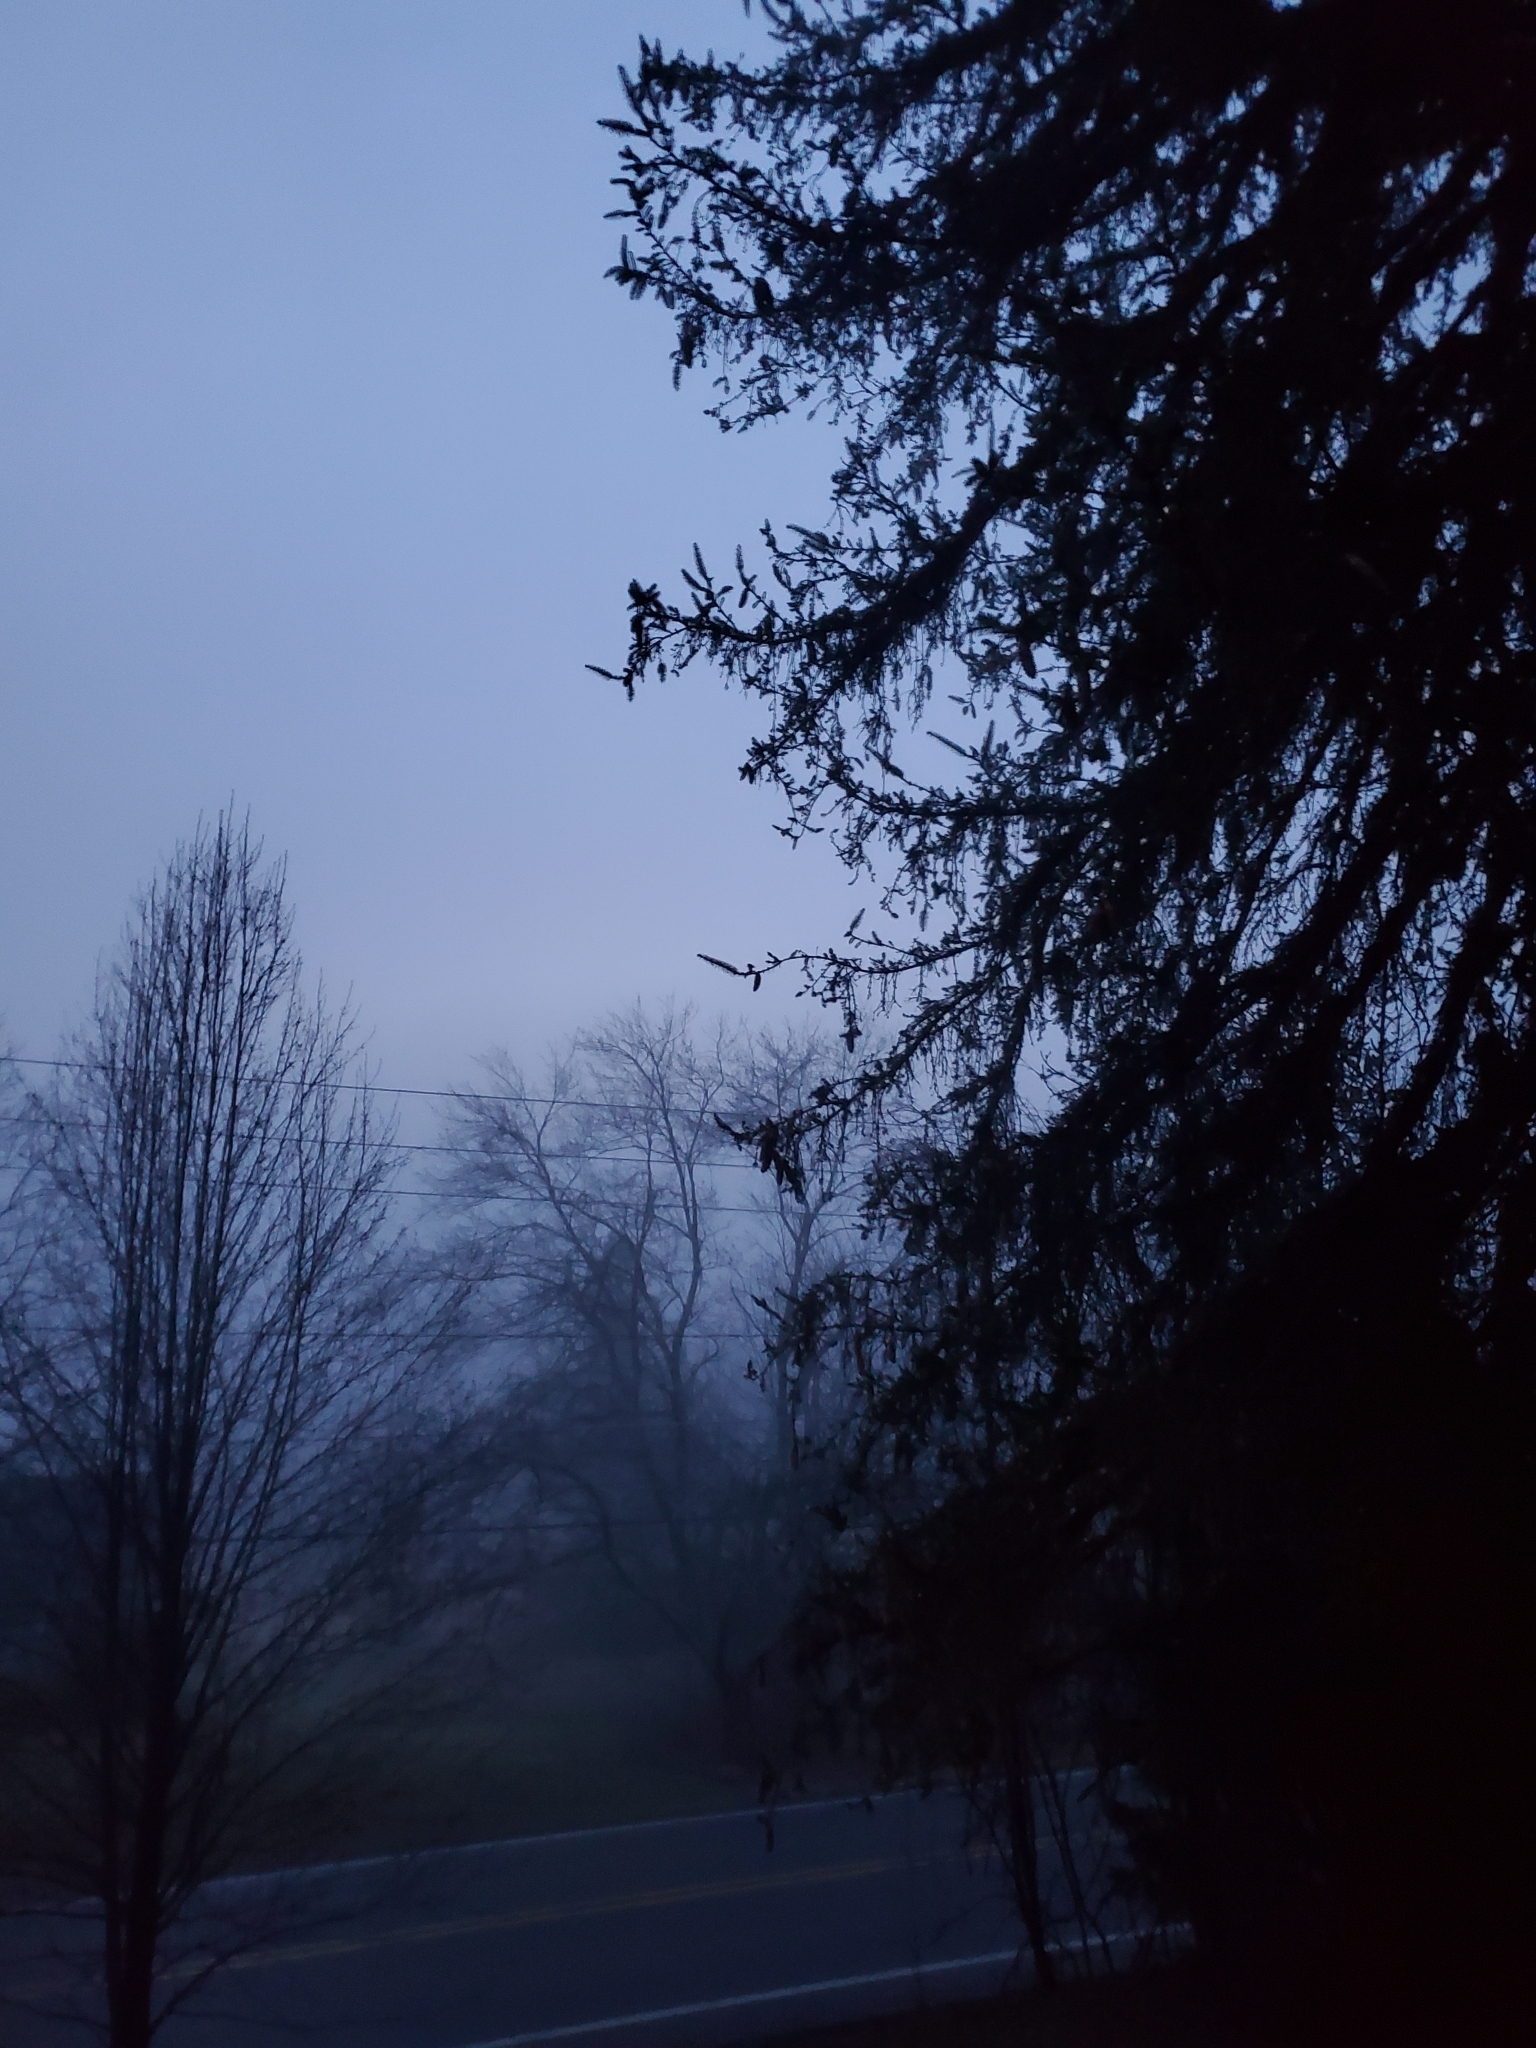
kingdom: Animalia
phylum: Chordata
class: Aves
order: Passeriformes
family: Cardinalidae
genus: Cardinalis
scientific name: Cardinalis cardinalis
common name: Northern cardinal
